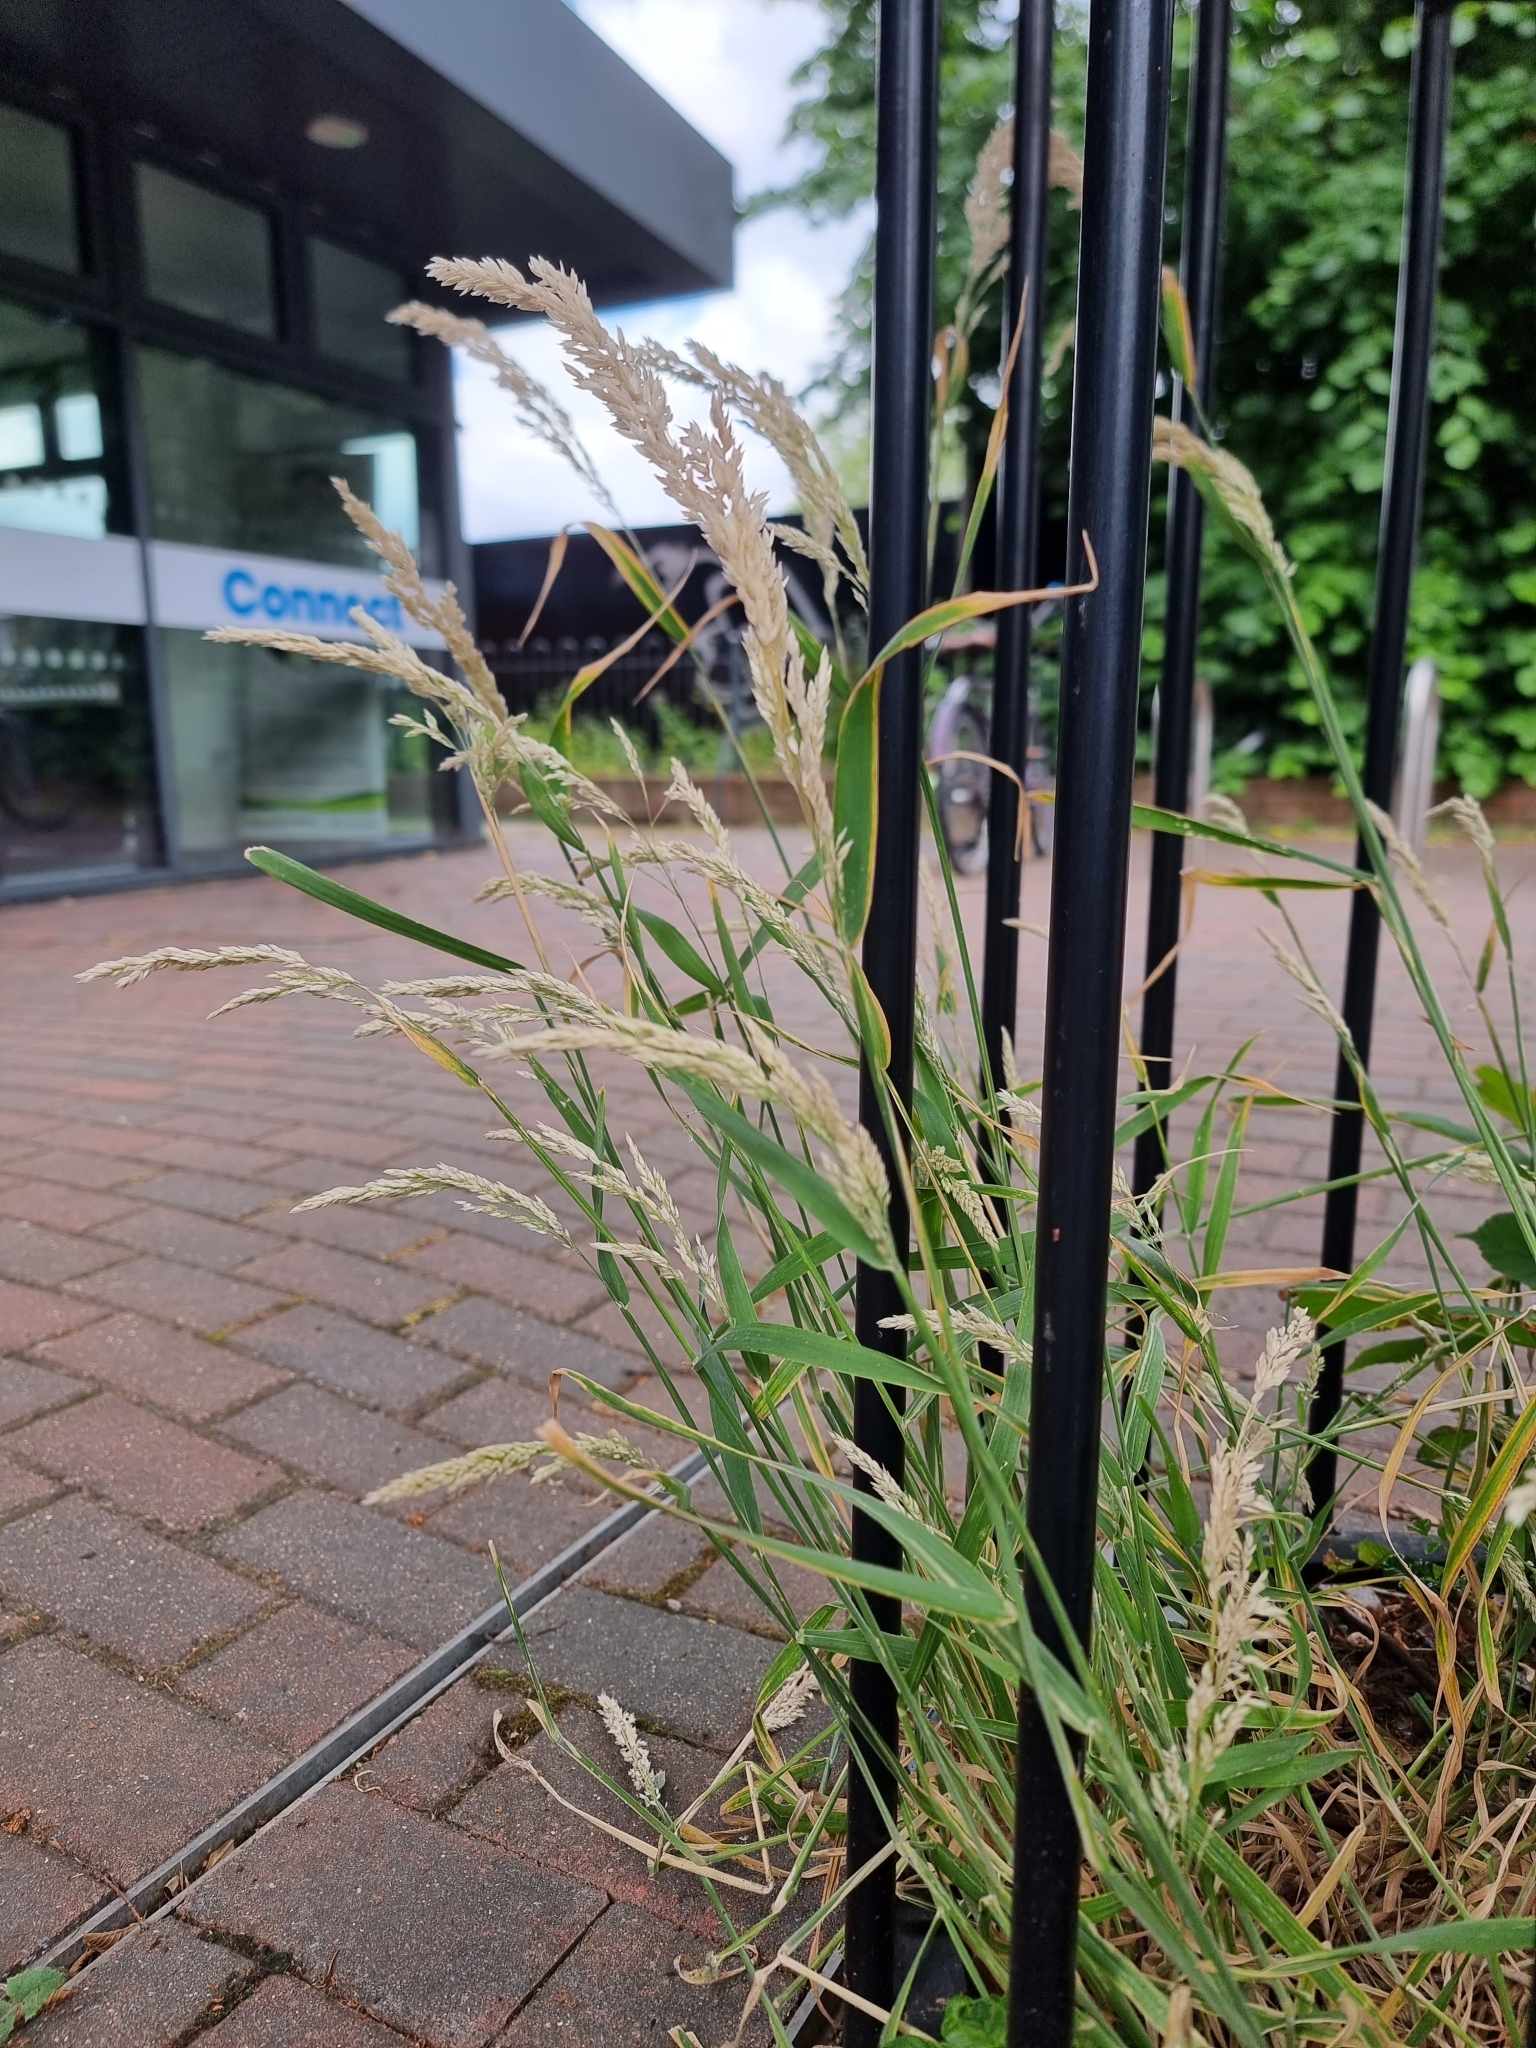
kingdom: Plantae
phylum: Tracheophyta
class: Liliopsida
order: Poales
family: Poaceae
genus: Holcus
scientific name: Holcus lanatus
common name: Yorkshire-fog
